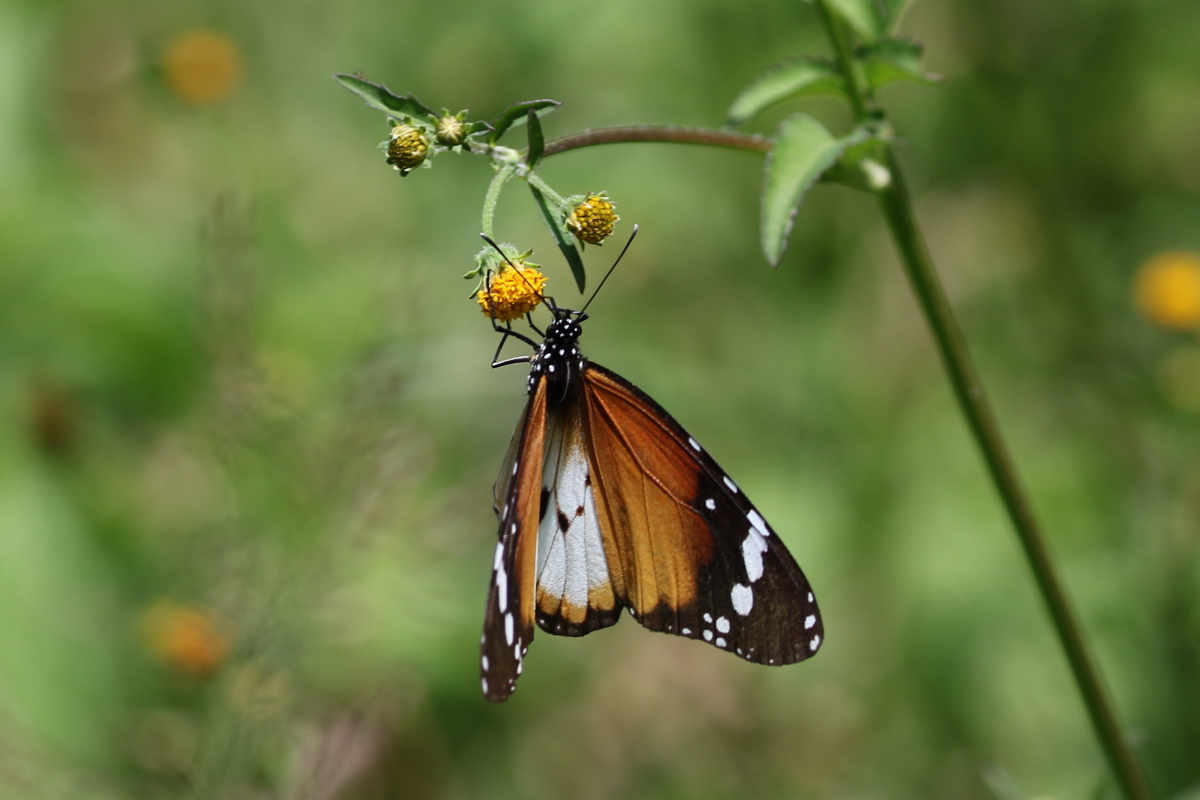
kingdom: Animalia
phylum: Arthropoda
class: Insecta
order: Lepidoptera
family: Nymphalidae
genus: Danaus
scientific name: Danaus chrysippus
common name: Plain tiger
